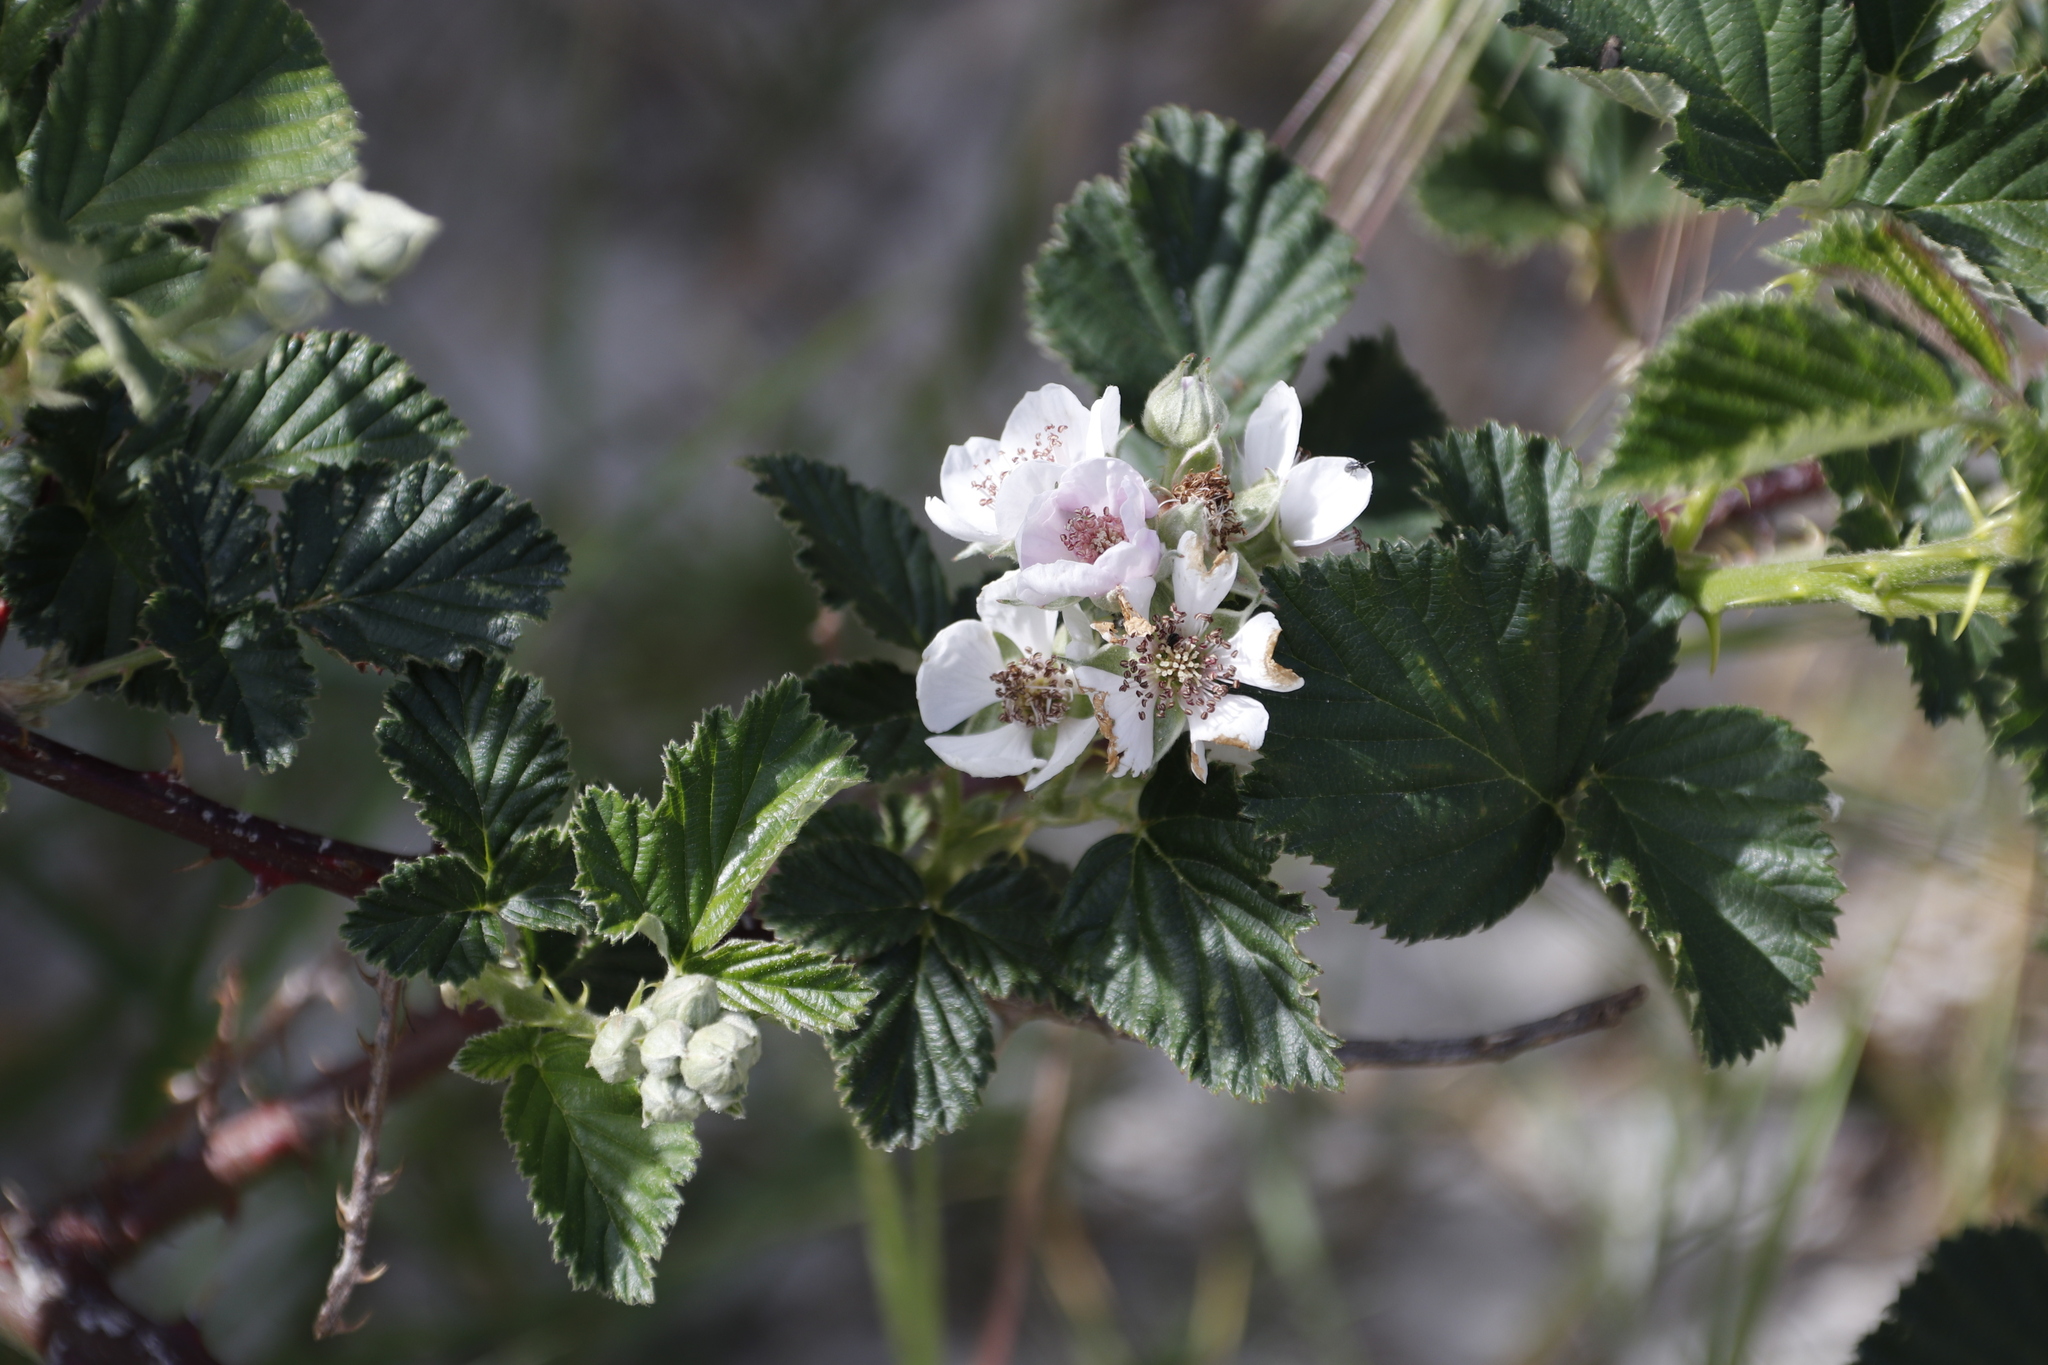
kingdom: Plantae
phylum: Tracheophyta
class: Magnoliopsida
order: Rosales
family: Rosaceae
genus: Rubus
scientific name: Rubus
